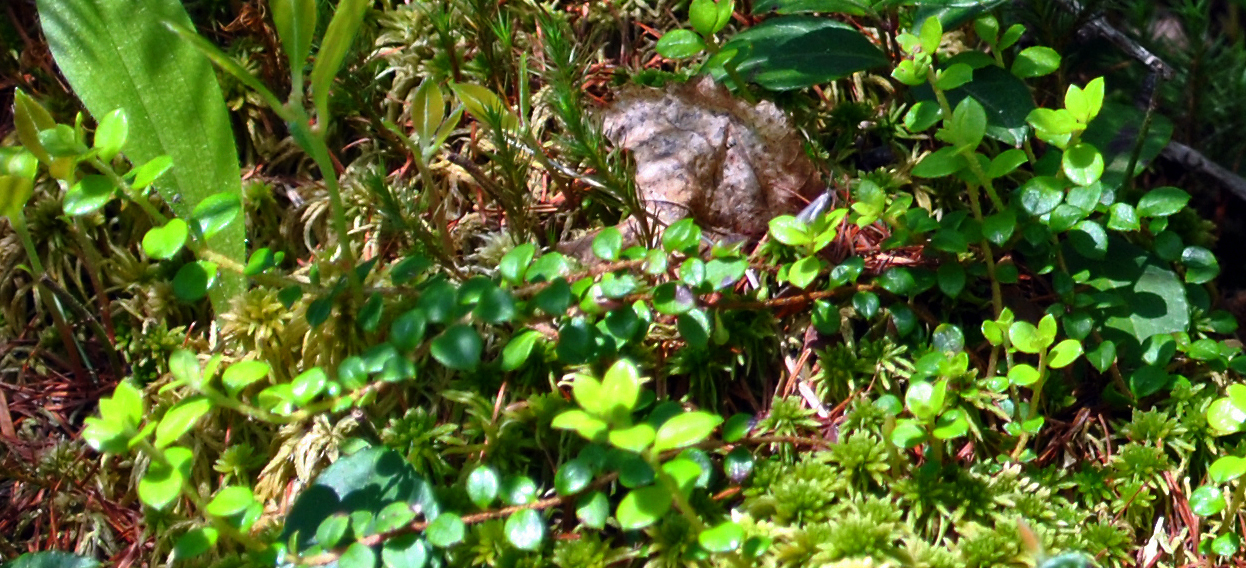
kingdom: Plantae
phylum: Tracheophyta
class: Magnoliopsida
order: Ericales
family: Ericaceae
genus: Gaultheria
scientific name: Gaultheria hispidula
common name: Cancer wintergreen
